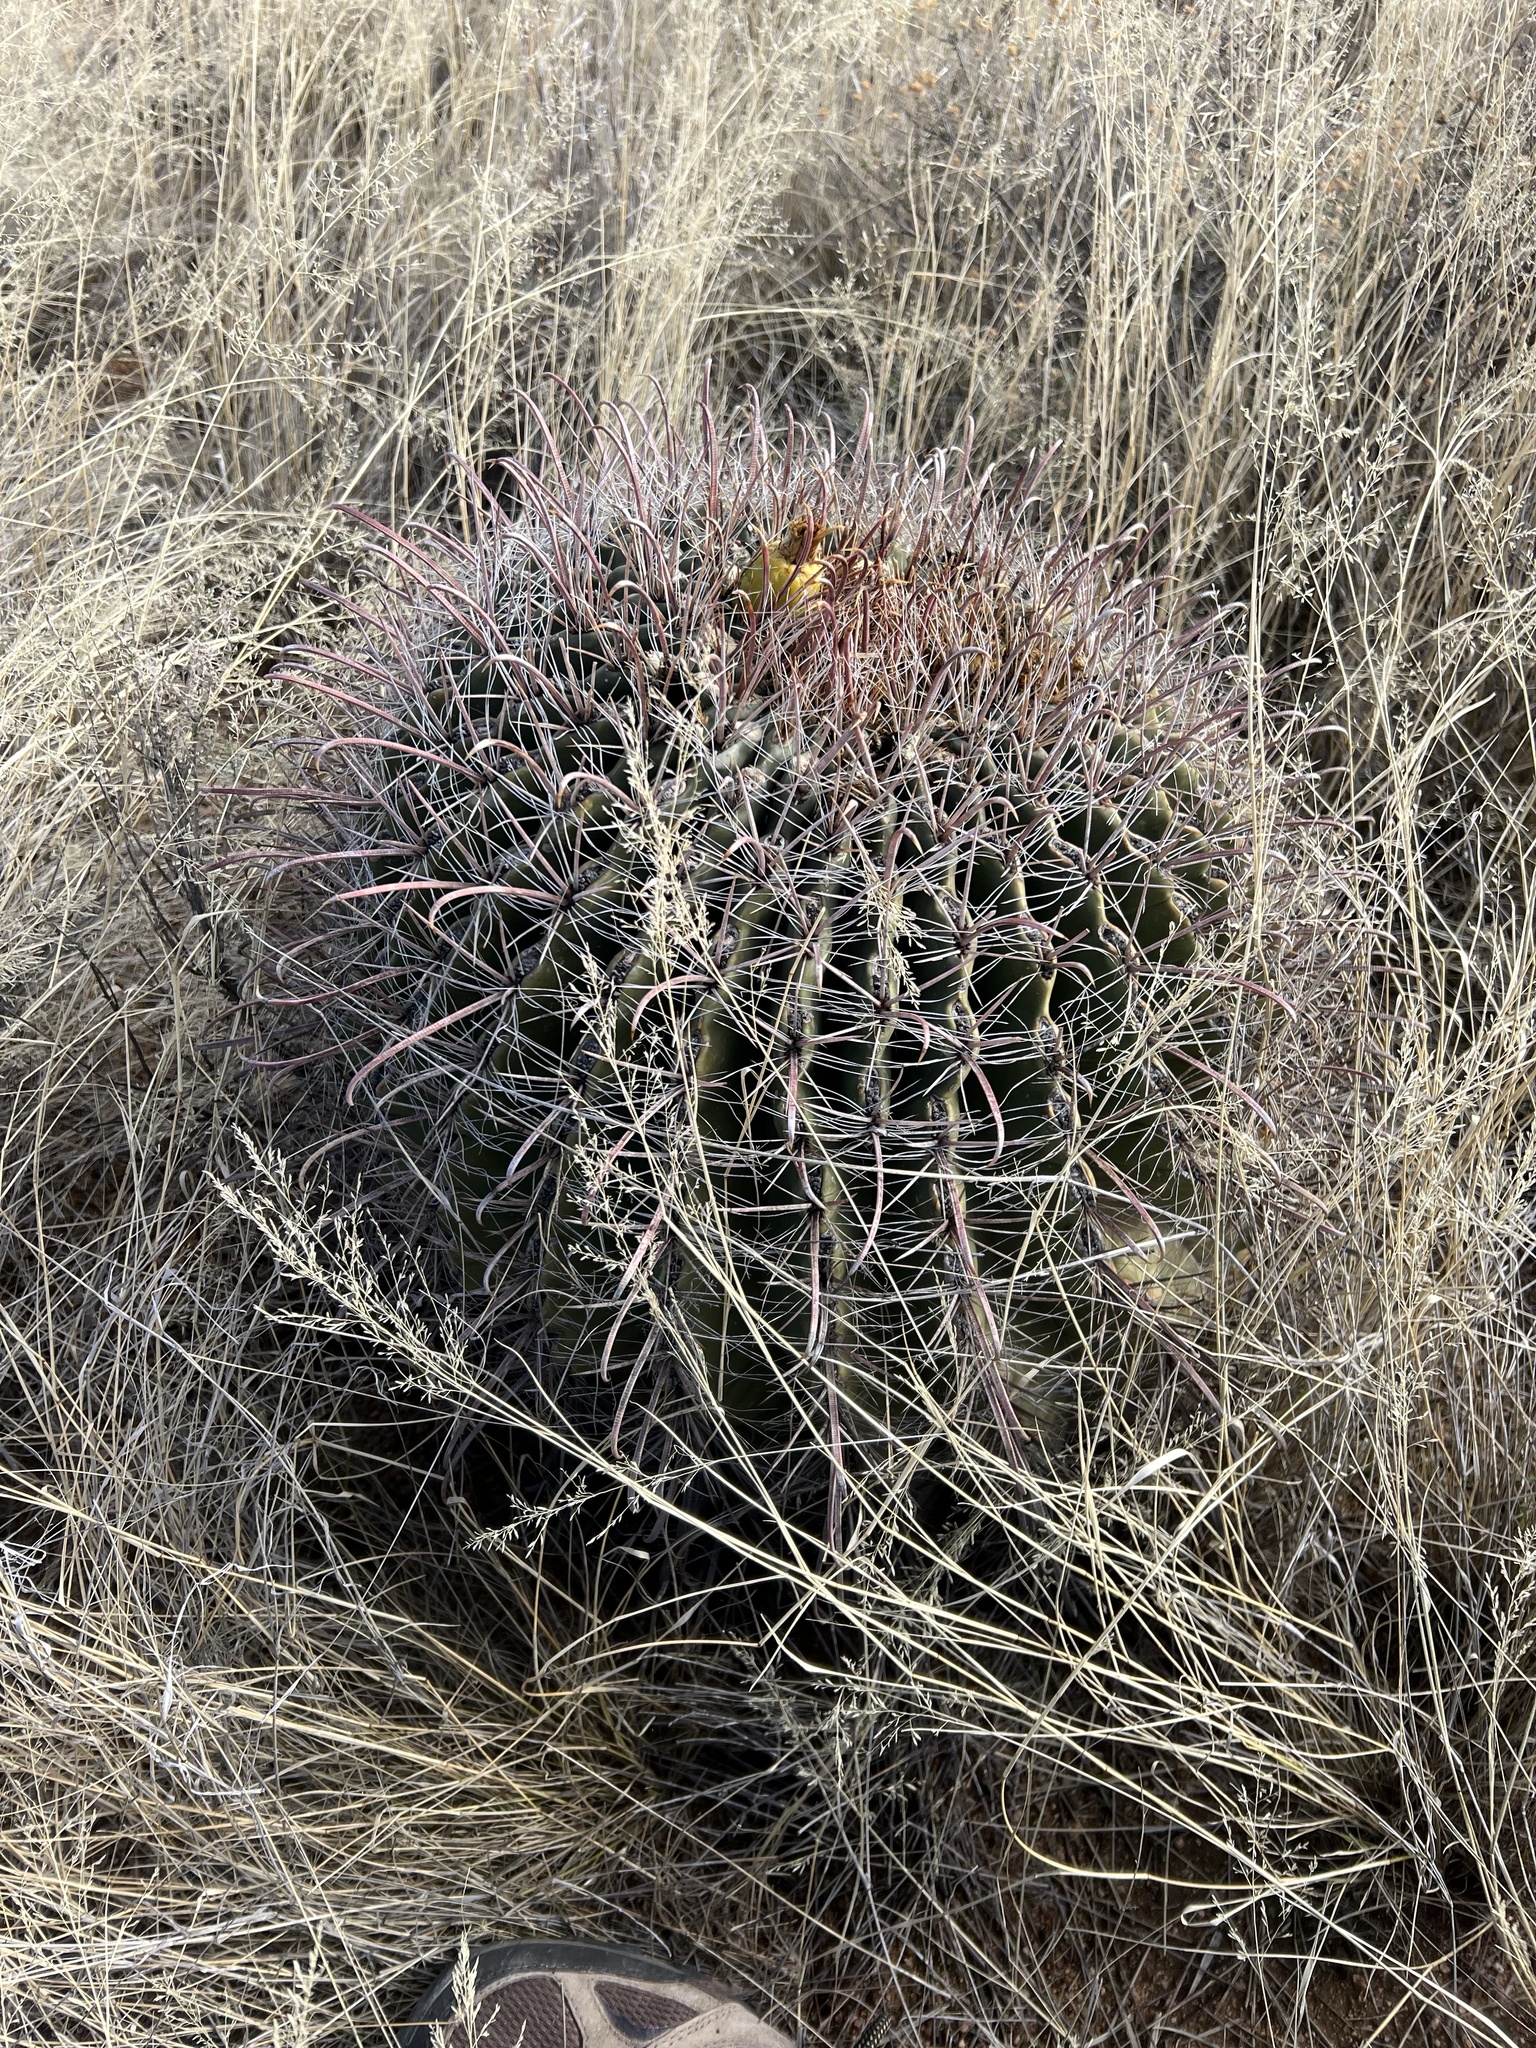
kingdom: Plantae
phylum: Tracheophyta
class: Magnoliopsida
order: Caryophyllales
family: Cactaceae
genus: Ferocactus
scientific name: Ferocactus wislizeni
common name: Candy barrel cactus
